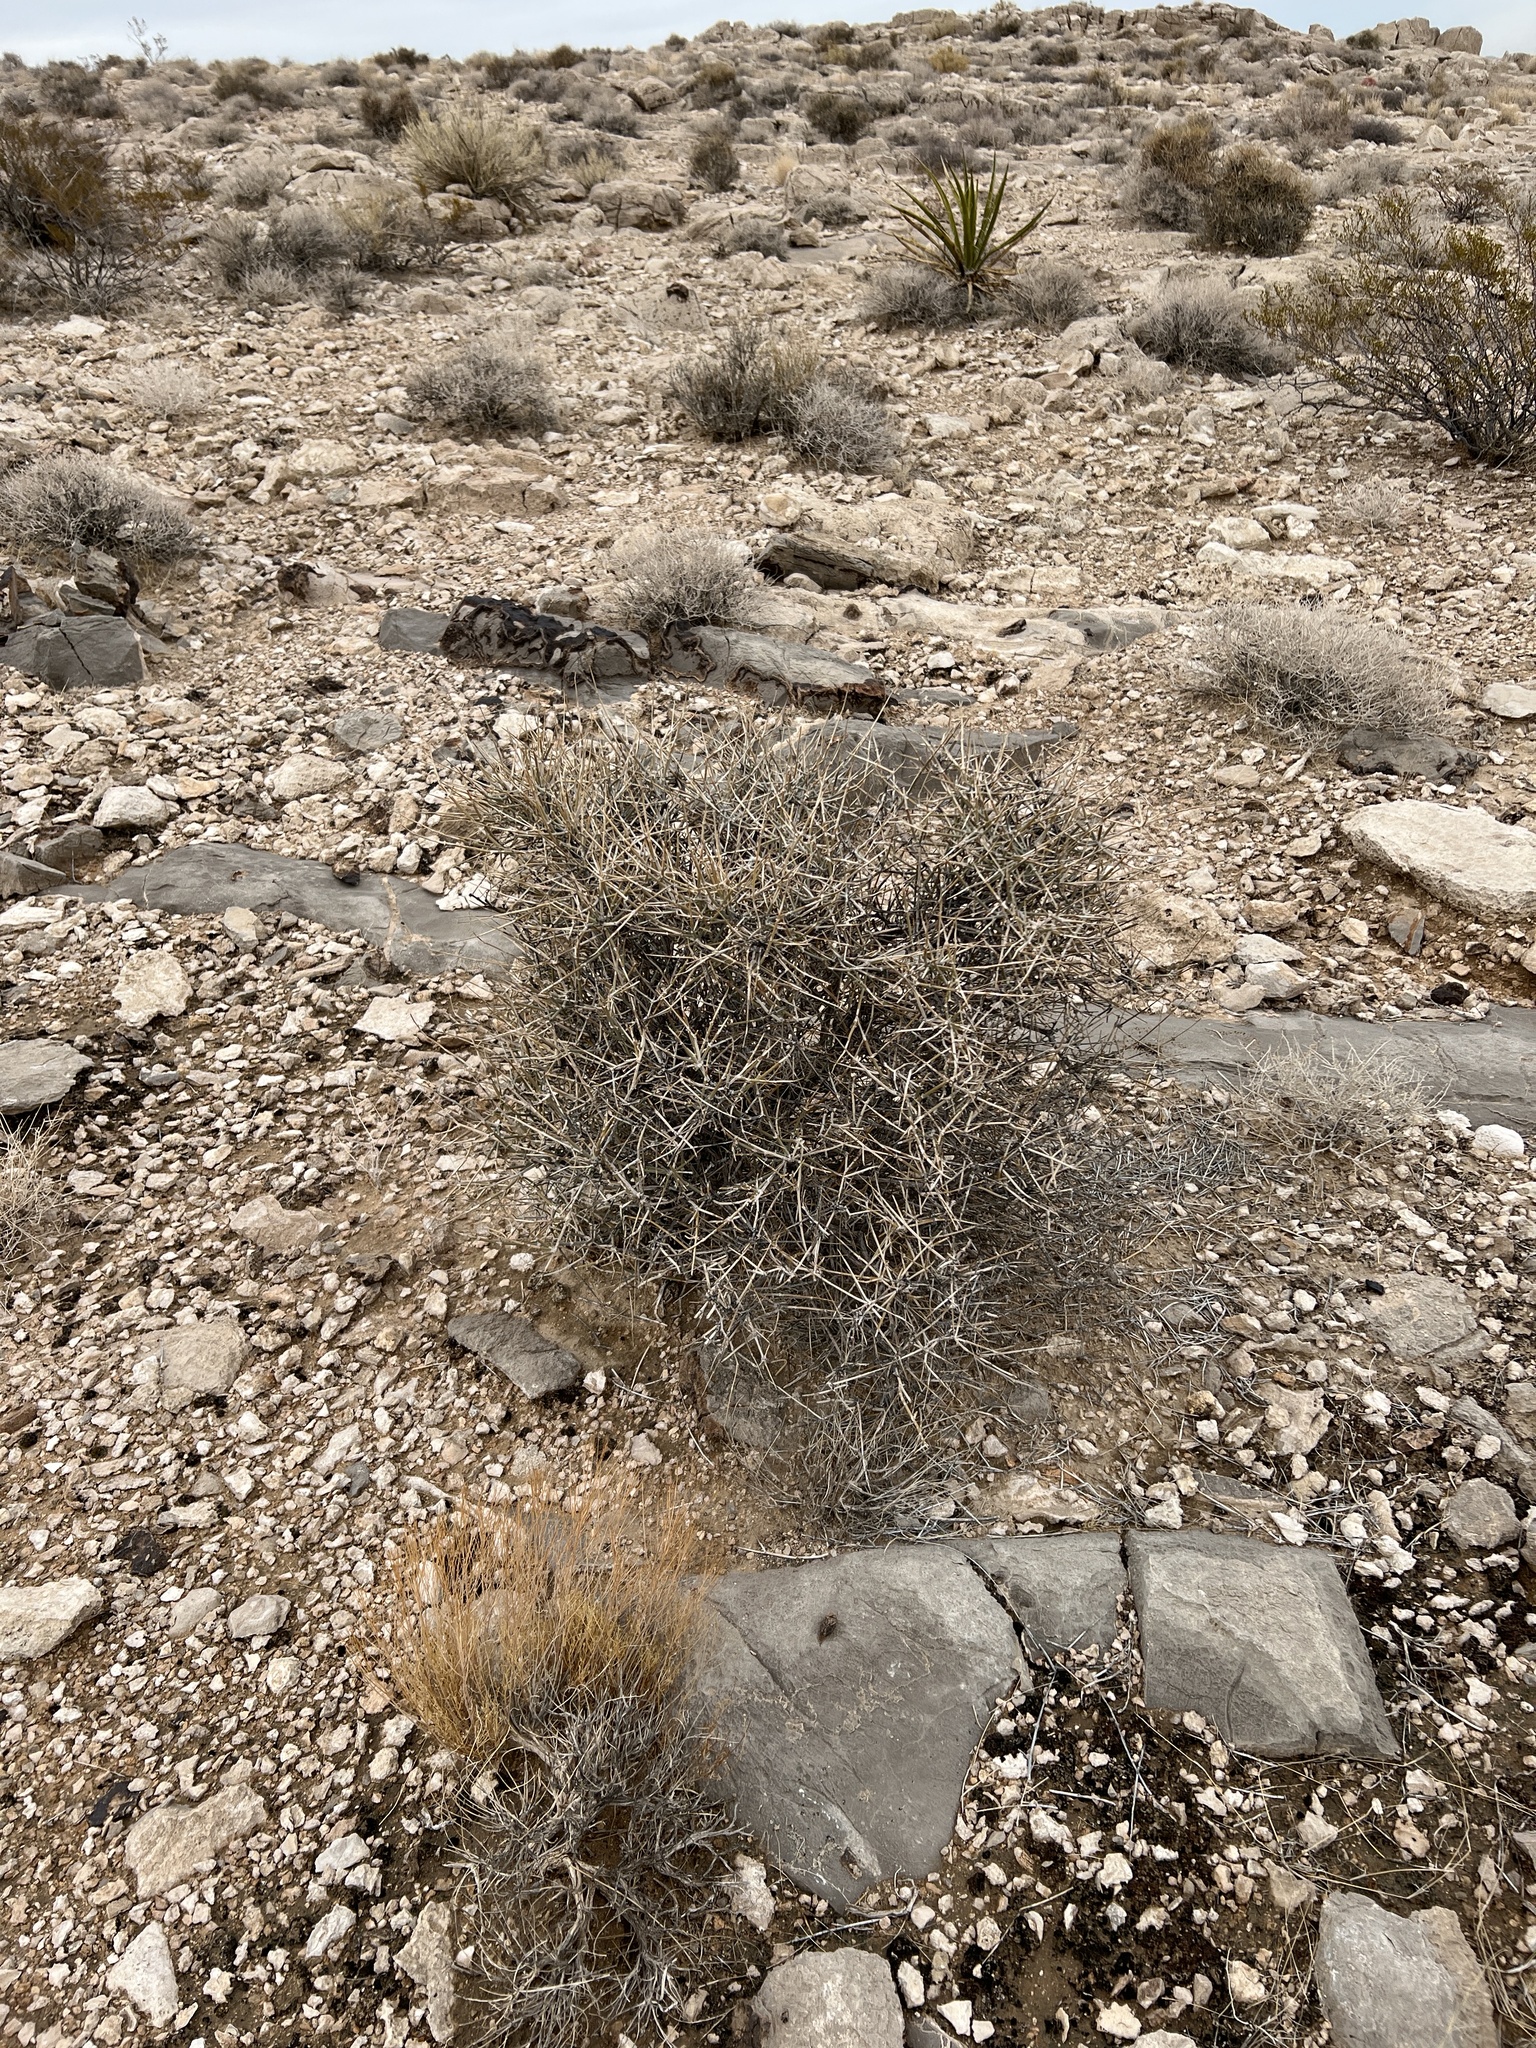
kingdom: Plantae
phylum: Tracheophyta
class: Gnetopsida
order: Ephedrales
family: Ephedraceae
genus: Ephedra
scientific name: Ephedra nevadensis
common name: Gray ephedra
